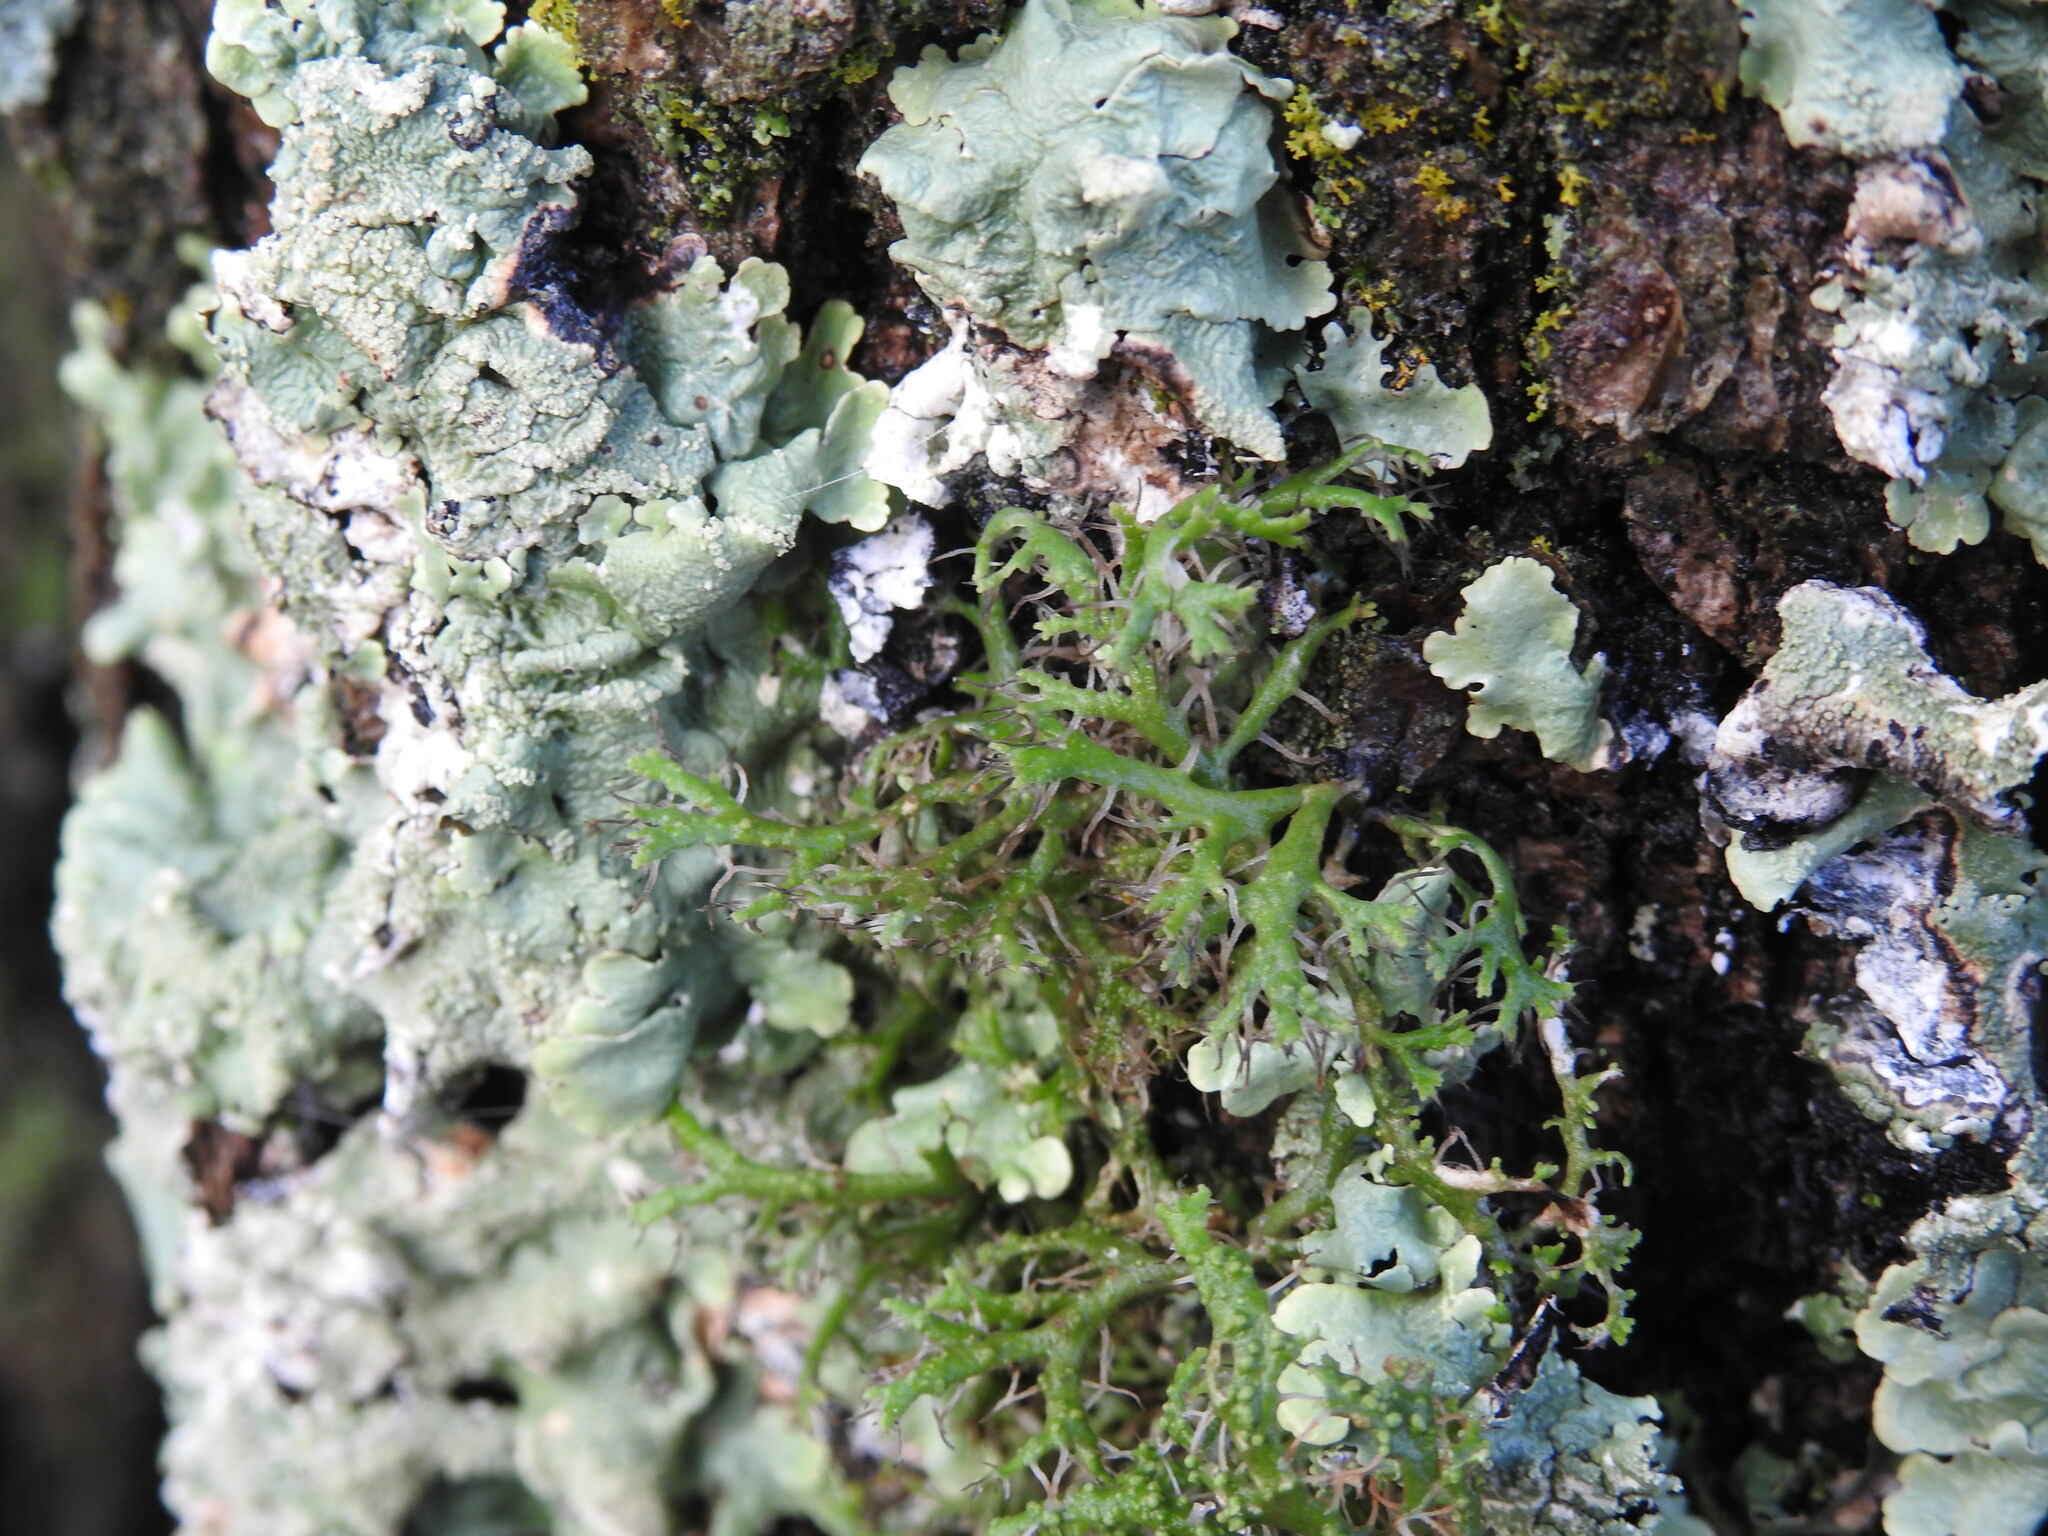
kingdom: Fungi
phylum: Ascomycota
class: Lecanoromycetes
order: Caliciales
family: Physciaceae
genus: Anaptychia
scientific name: Anaptychia ciliaris
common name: Great ciliated lichen
